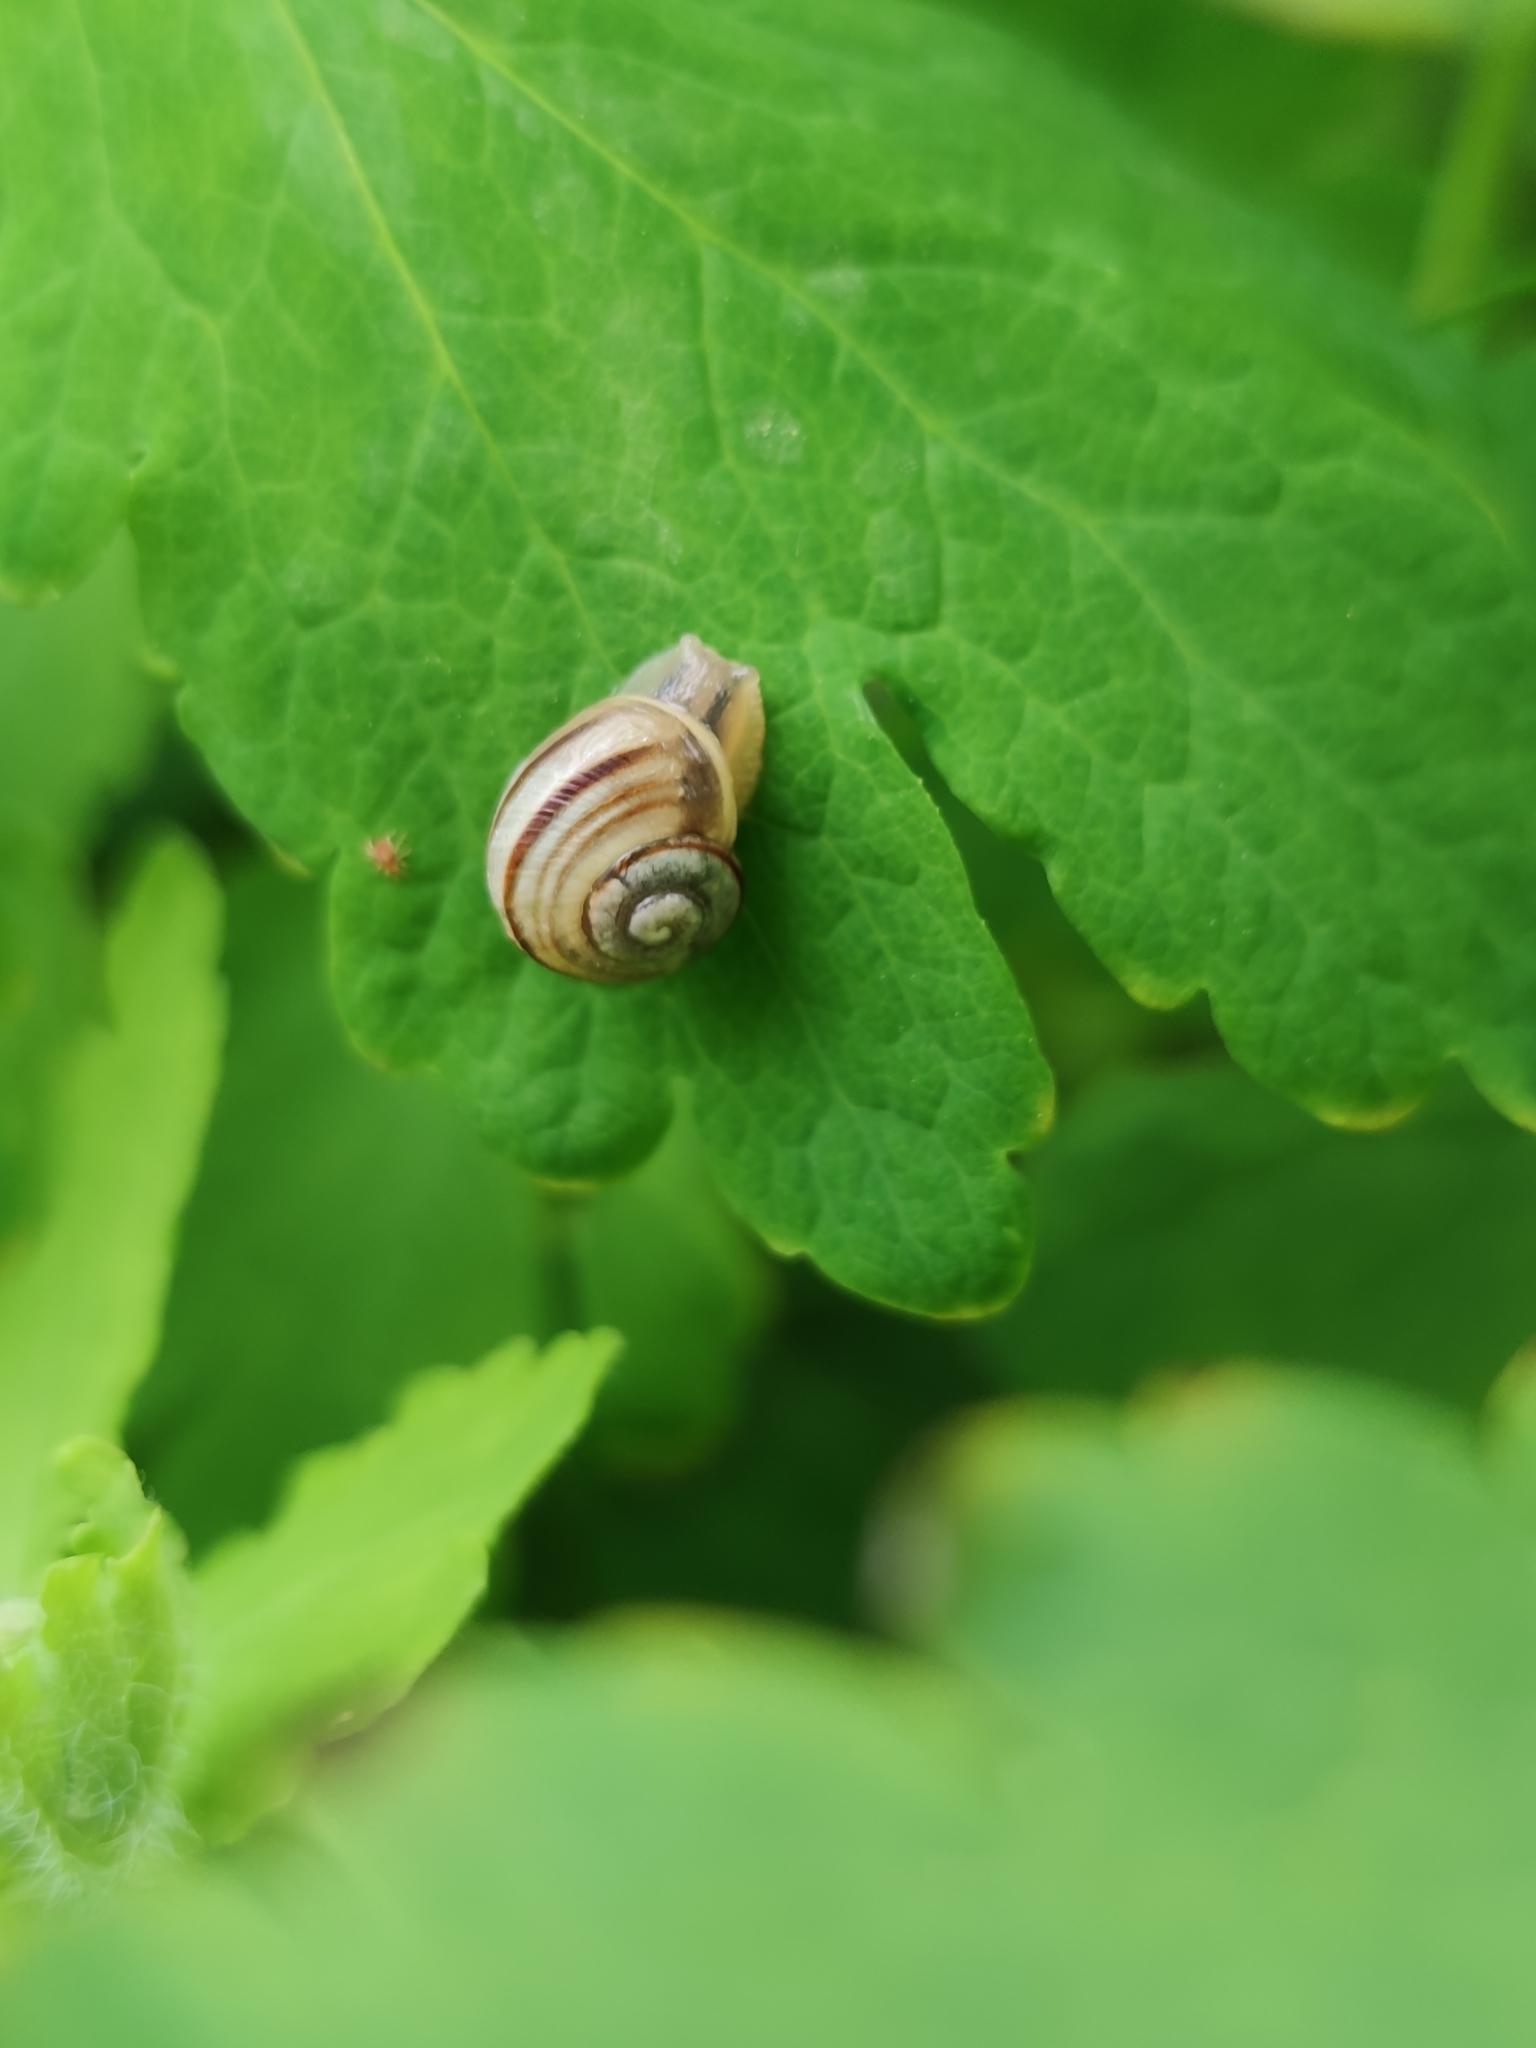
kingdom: Animalia
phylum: Mollusca
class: Gastropoda
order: Stylommatophora
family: Helicidae
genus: Caucasotachea
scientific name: Caucasotachea vindobonensis
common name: European helicid land snail
